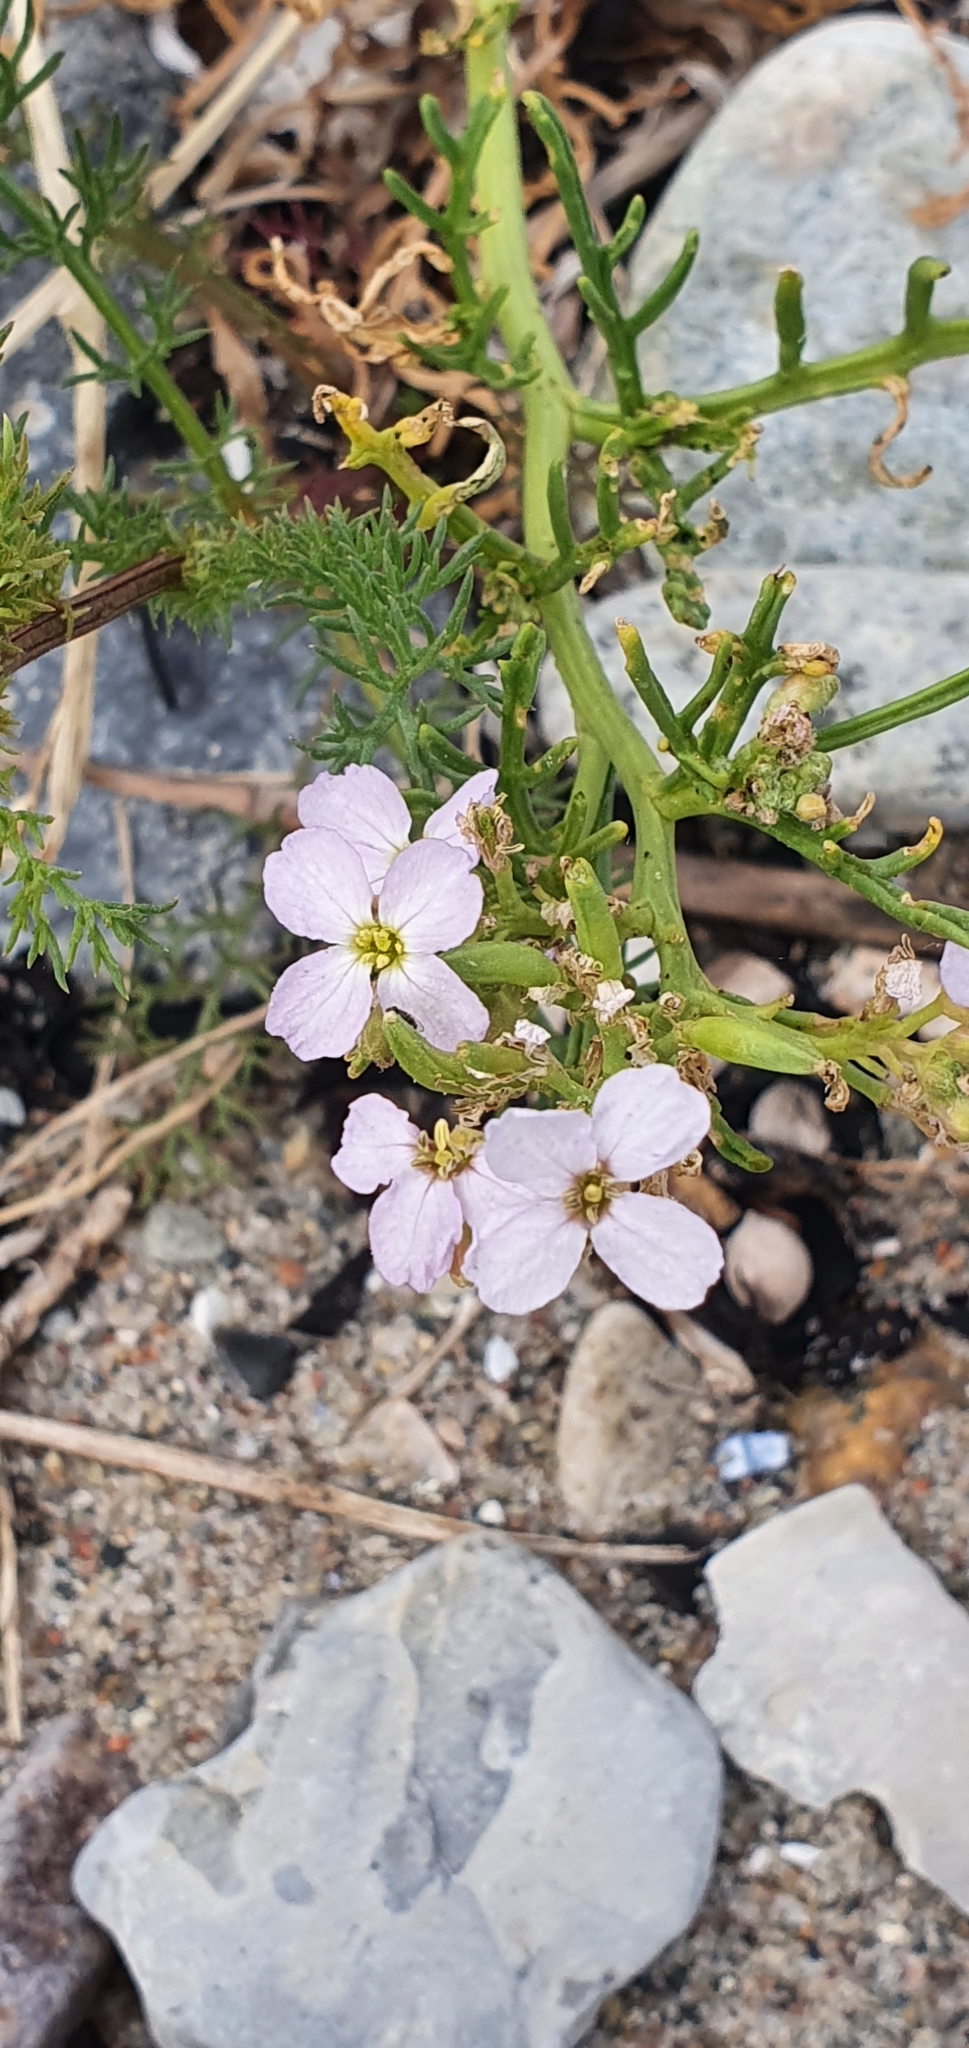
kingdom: Plantae
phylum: Tracheophyta
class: Magnoliopsida
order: Brassicales
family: Brassicaceae
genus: Cakile
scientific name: Cakile maritima
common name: Sea rocket
